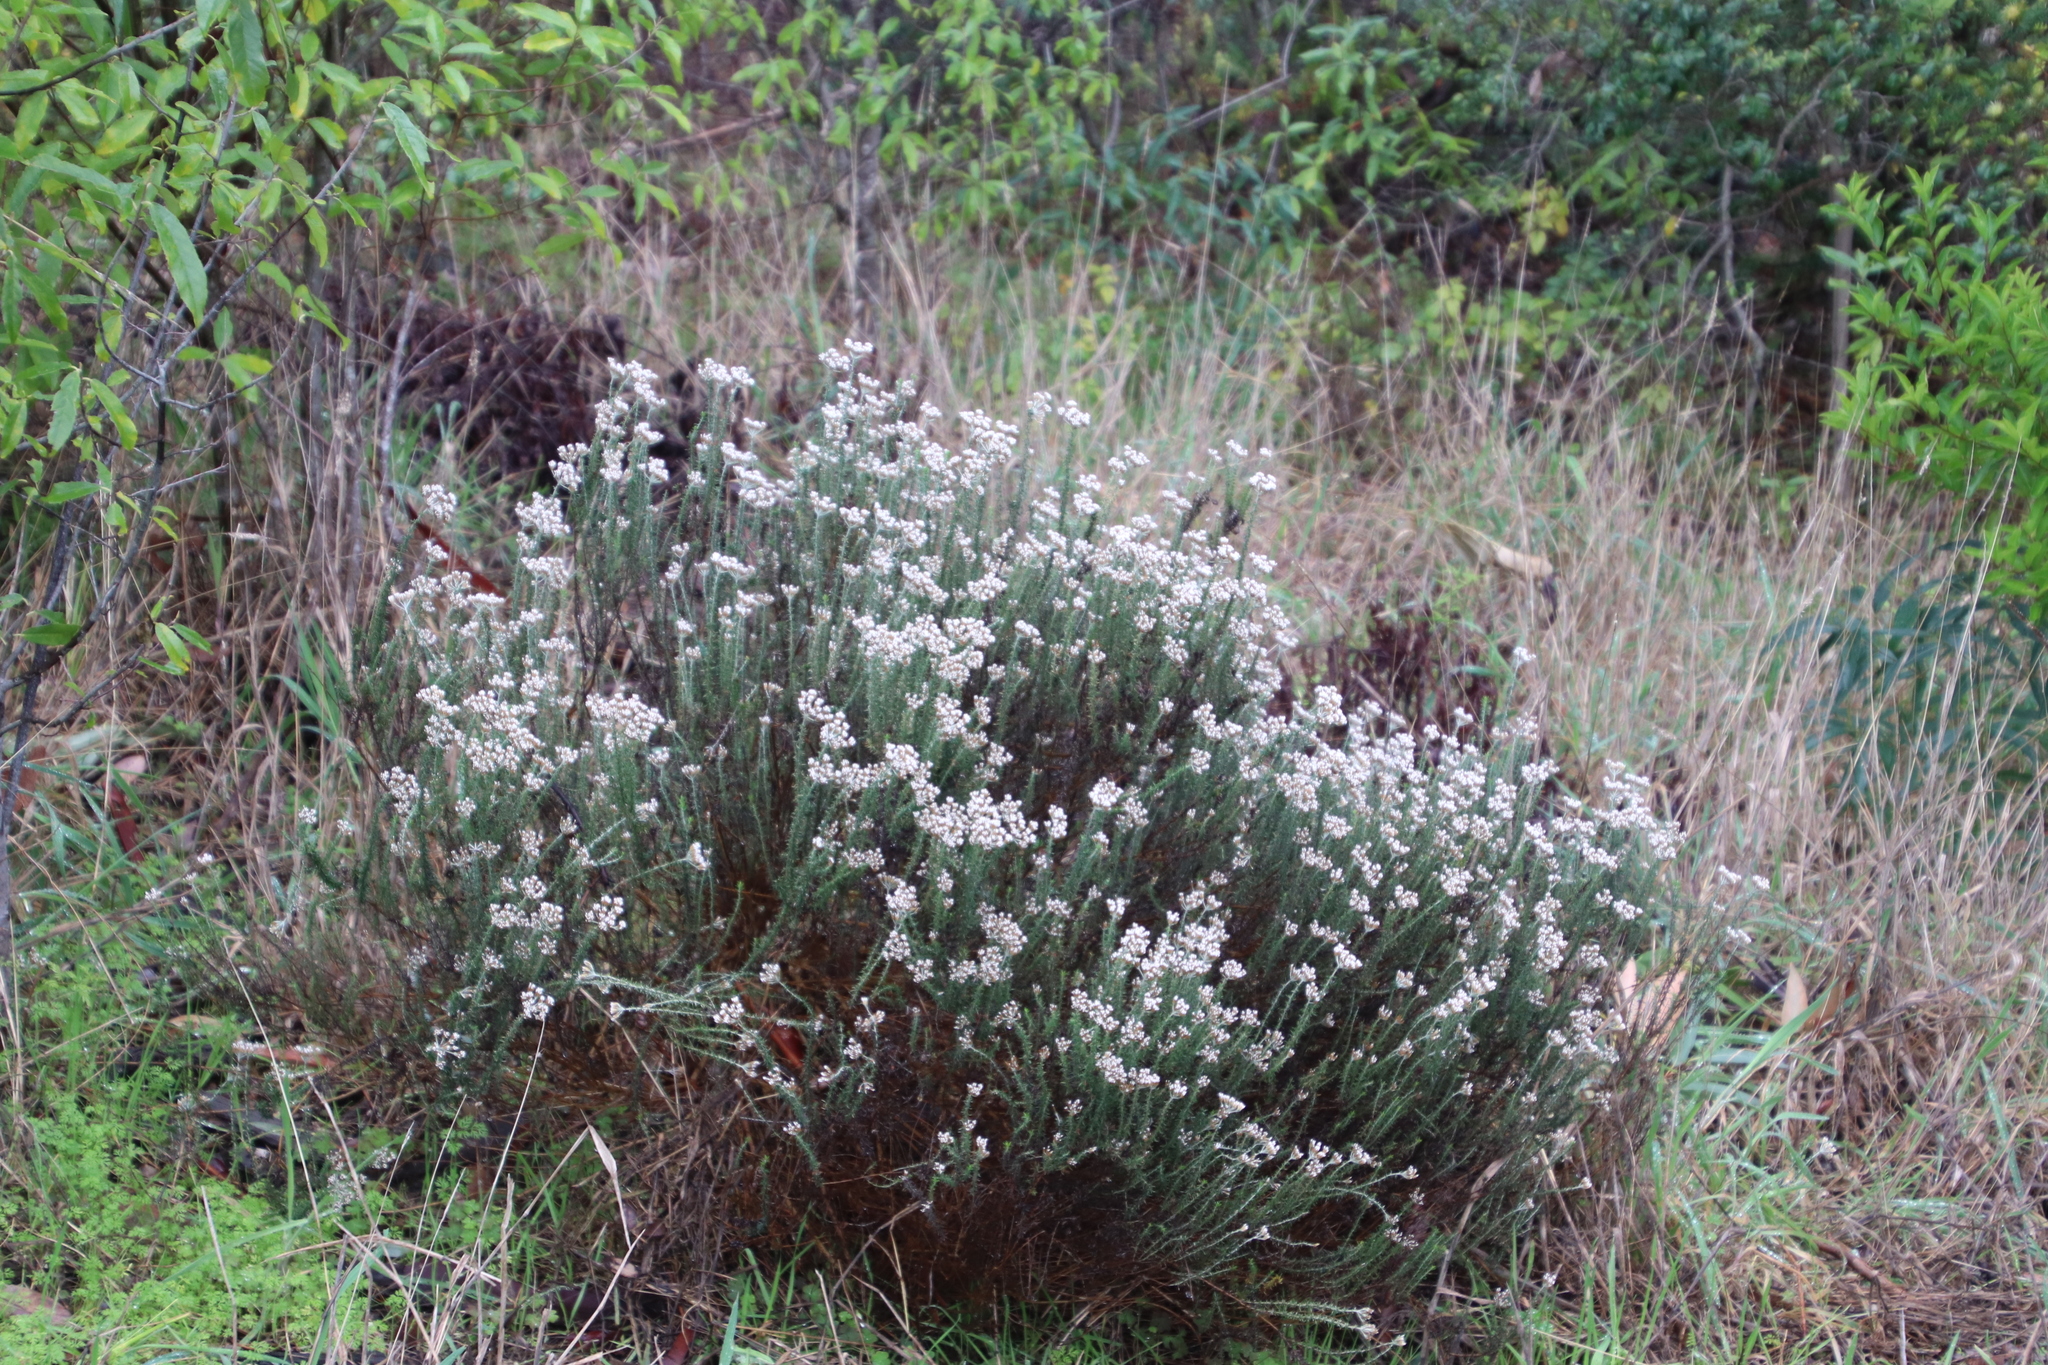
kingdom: Plantae
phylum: Tracheophyta
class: Magnoliopsida
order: Asterales
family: Asteraceae
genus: Metalasia
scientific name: Metalasia densa
